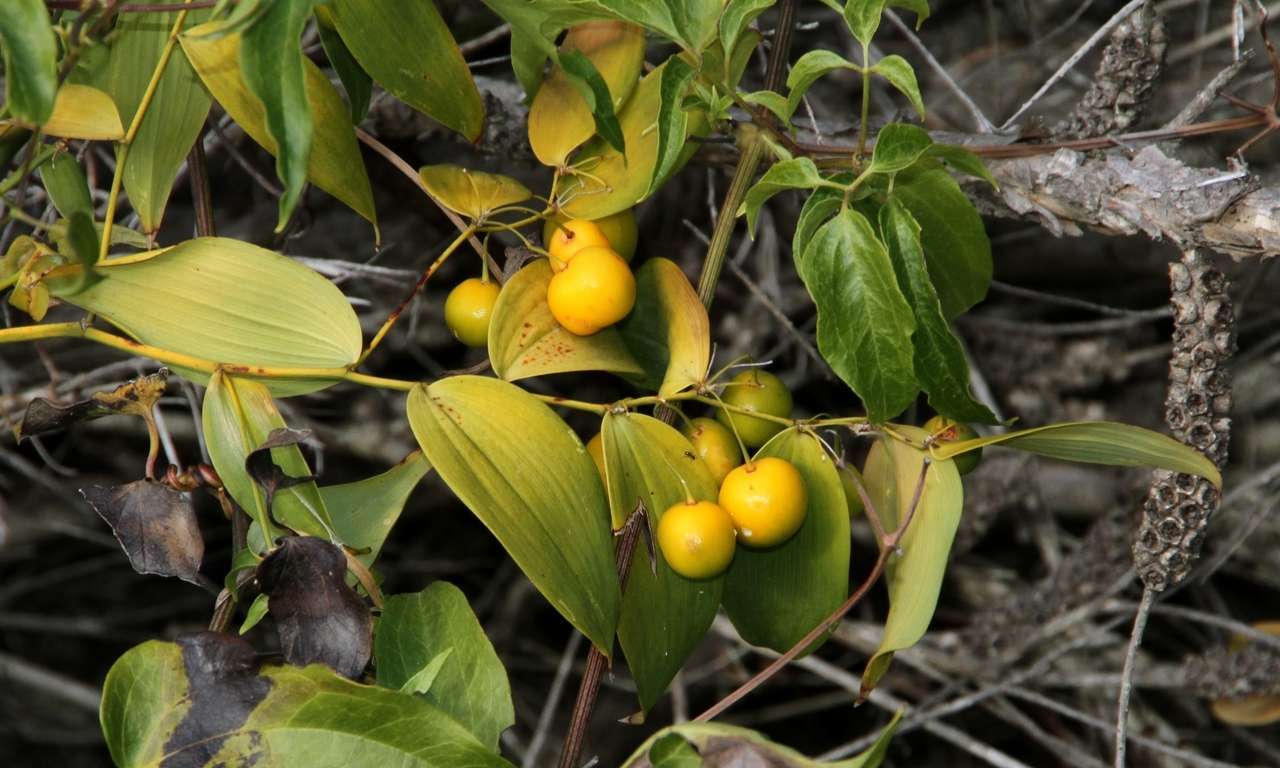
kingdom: Plantae
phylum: Tracheophyta
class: Liliopsida
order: Asparagales
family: Asparagaceae
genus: Eustrephus
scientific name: Eustrephus latifolius
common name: Orangevine
